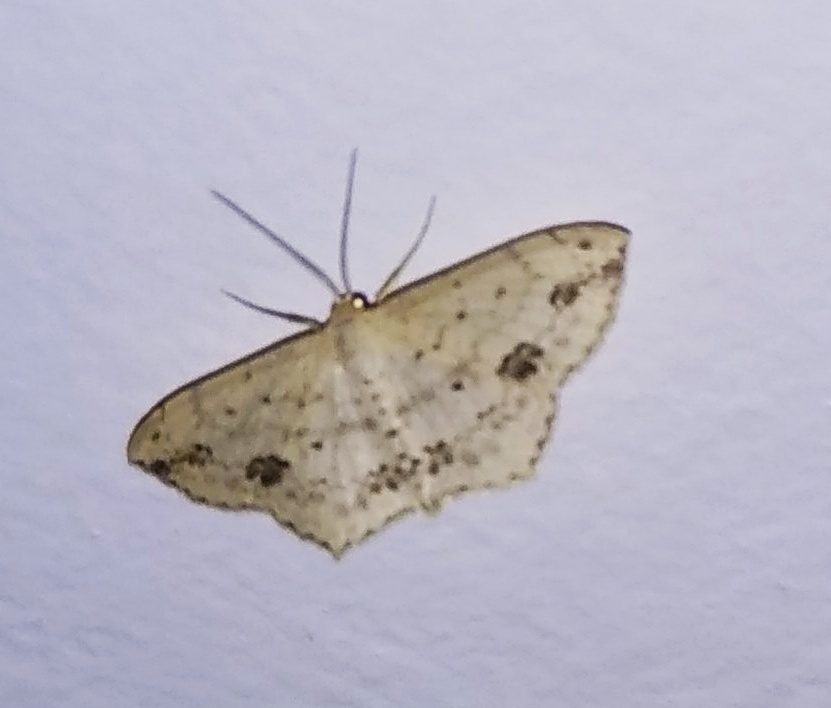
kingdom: Animalia
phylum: Arthropoda
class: Insecta
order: Lepidoptera
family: Geometridae
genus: Scopula
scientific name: Scopula pulchellata
